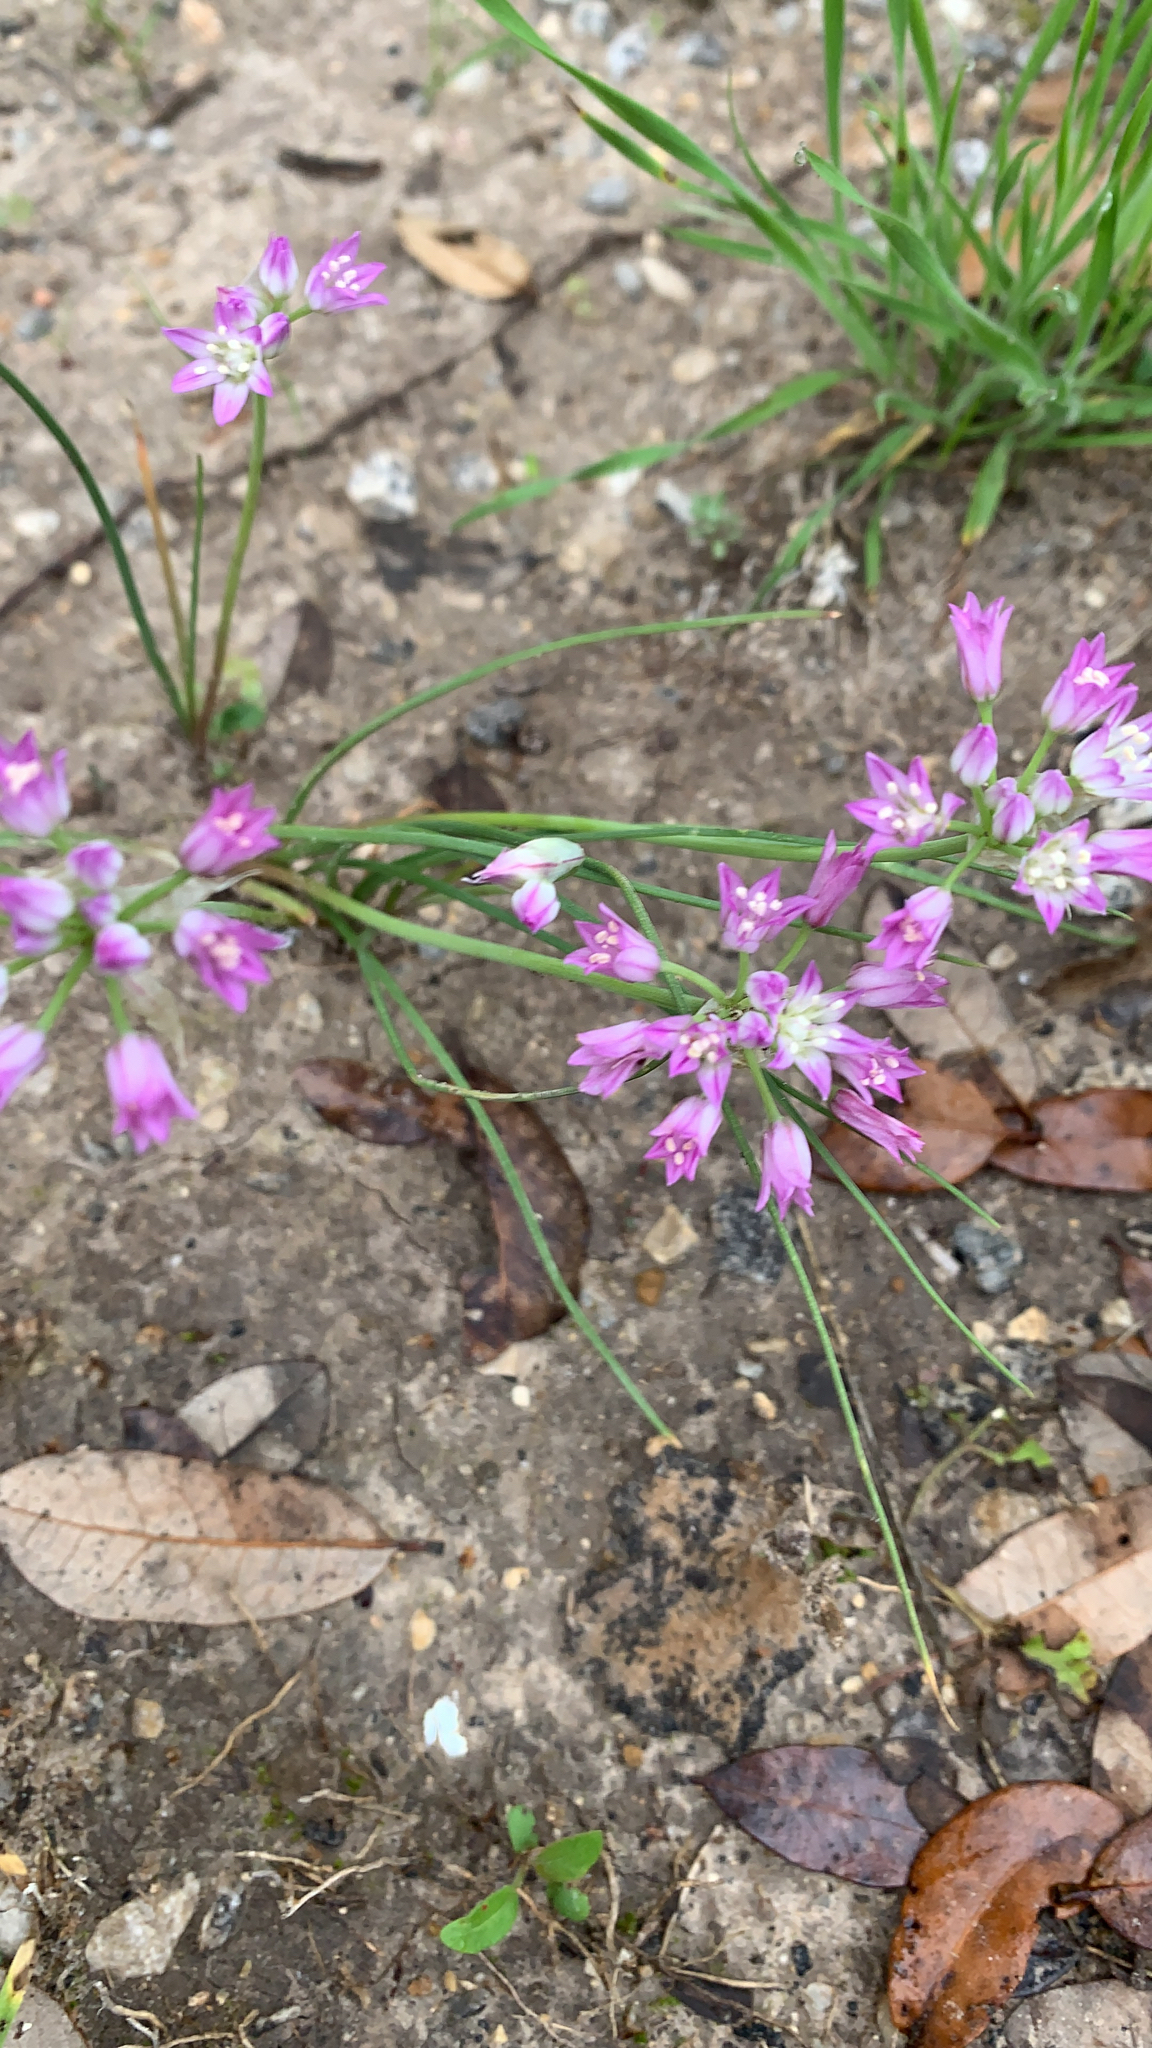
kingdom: Plantae
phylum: Tracheophyta
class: Liliopsida
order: Asparagales
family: Amaryllidaceae
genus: Allium
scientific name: Allium drummondii
